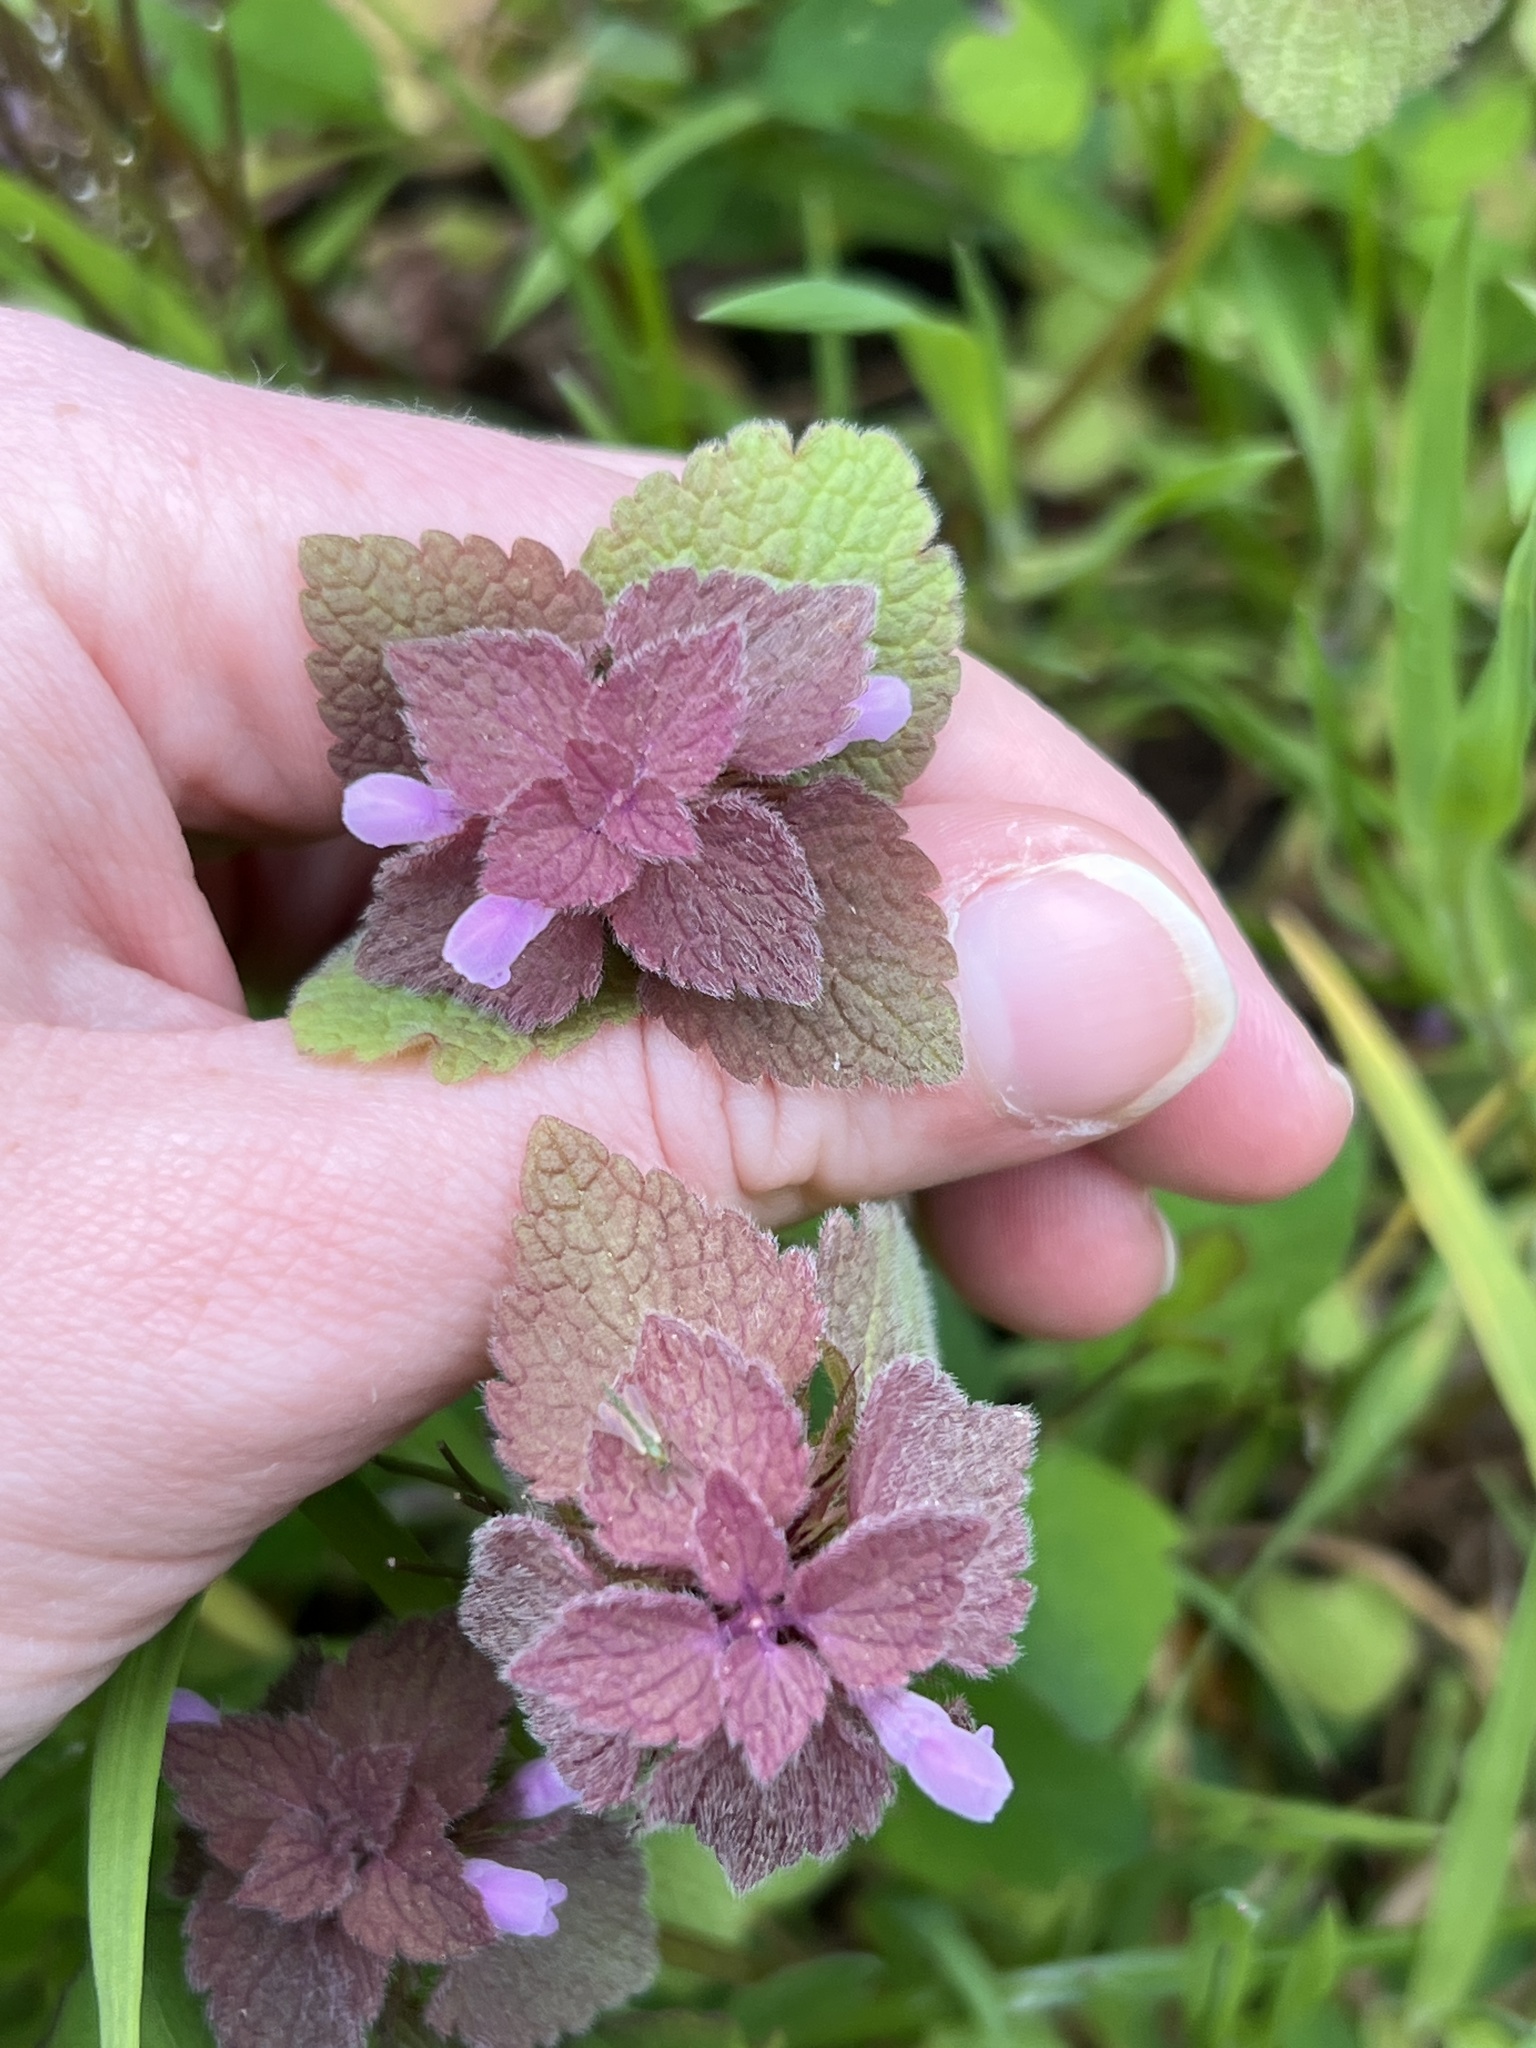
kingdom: Plantae
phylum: Tracheophyta
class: Magnoliopsida
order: Lamiales
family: Lamiaceae
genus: Lamium
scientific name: Lamium purpureum
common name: Red dead-nettle
